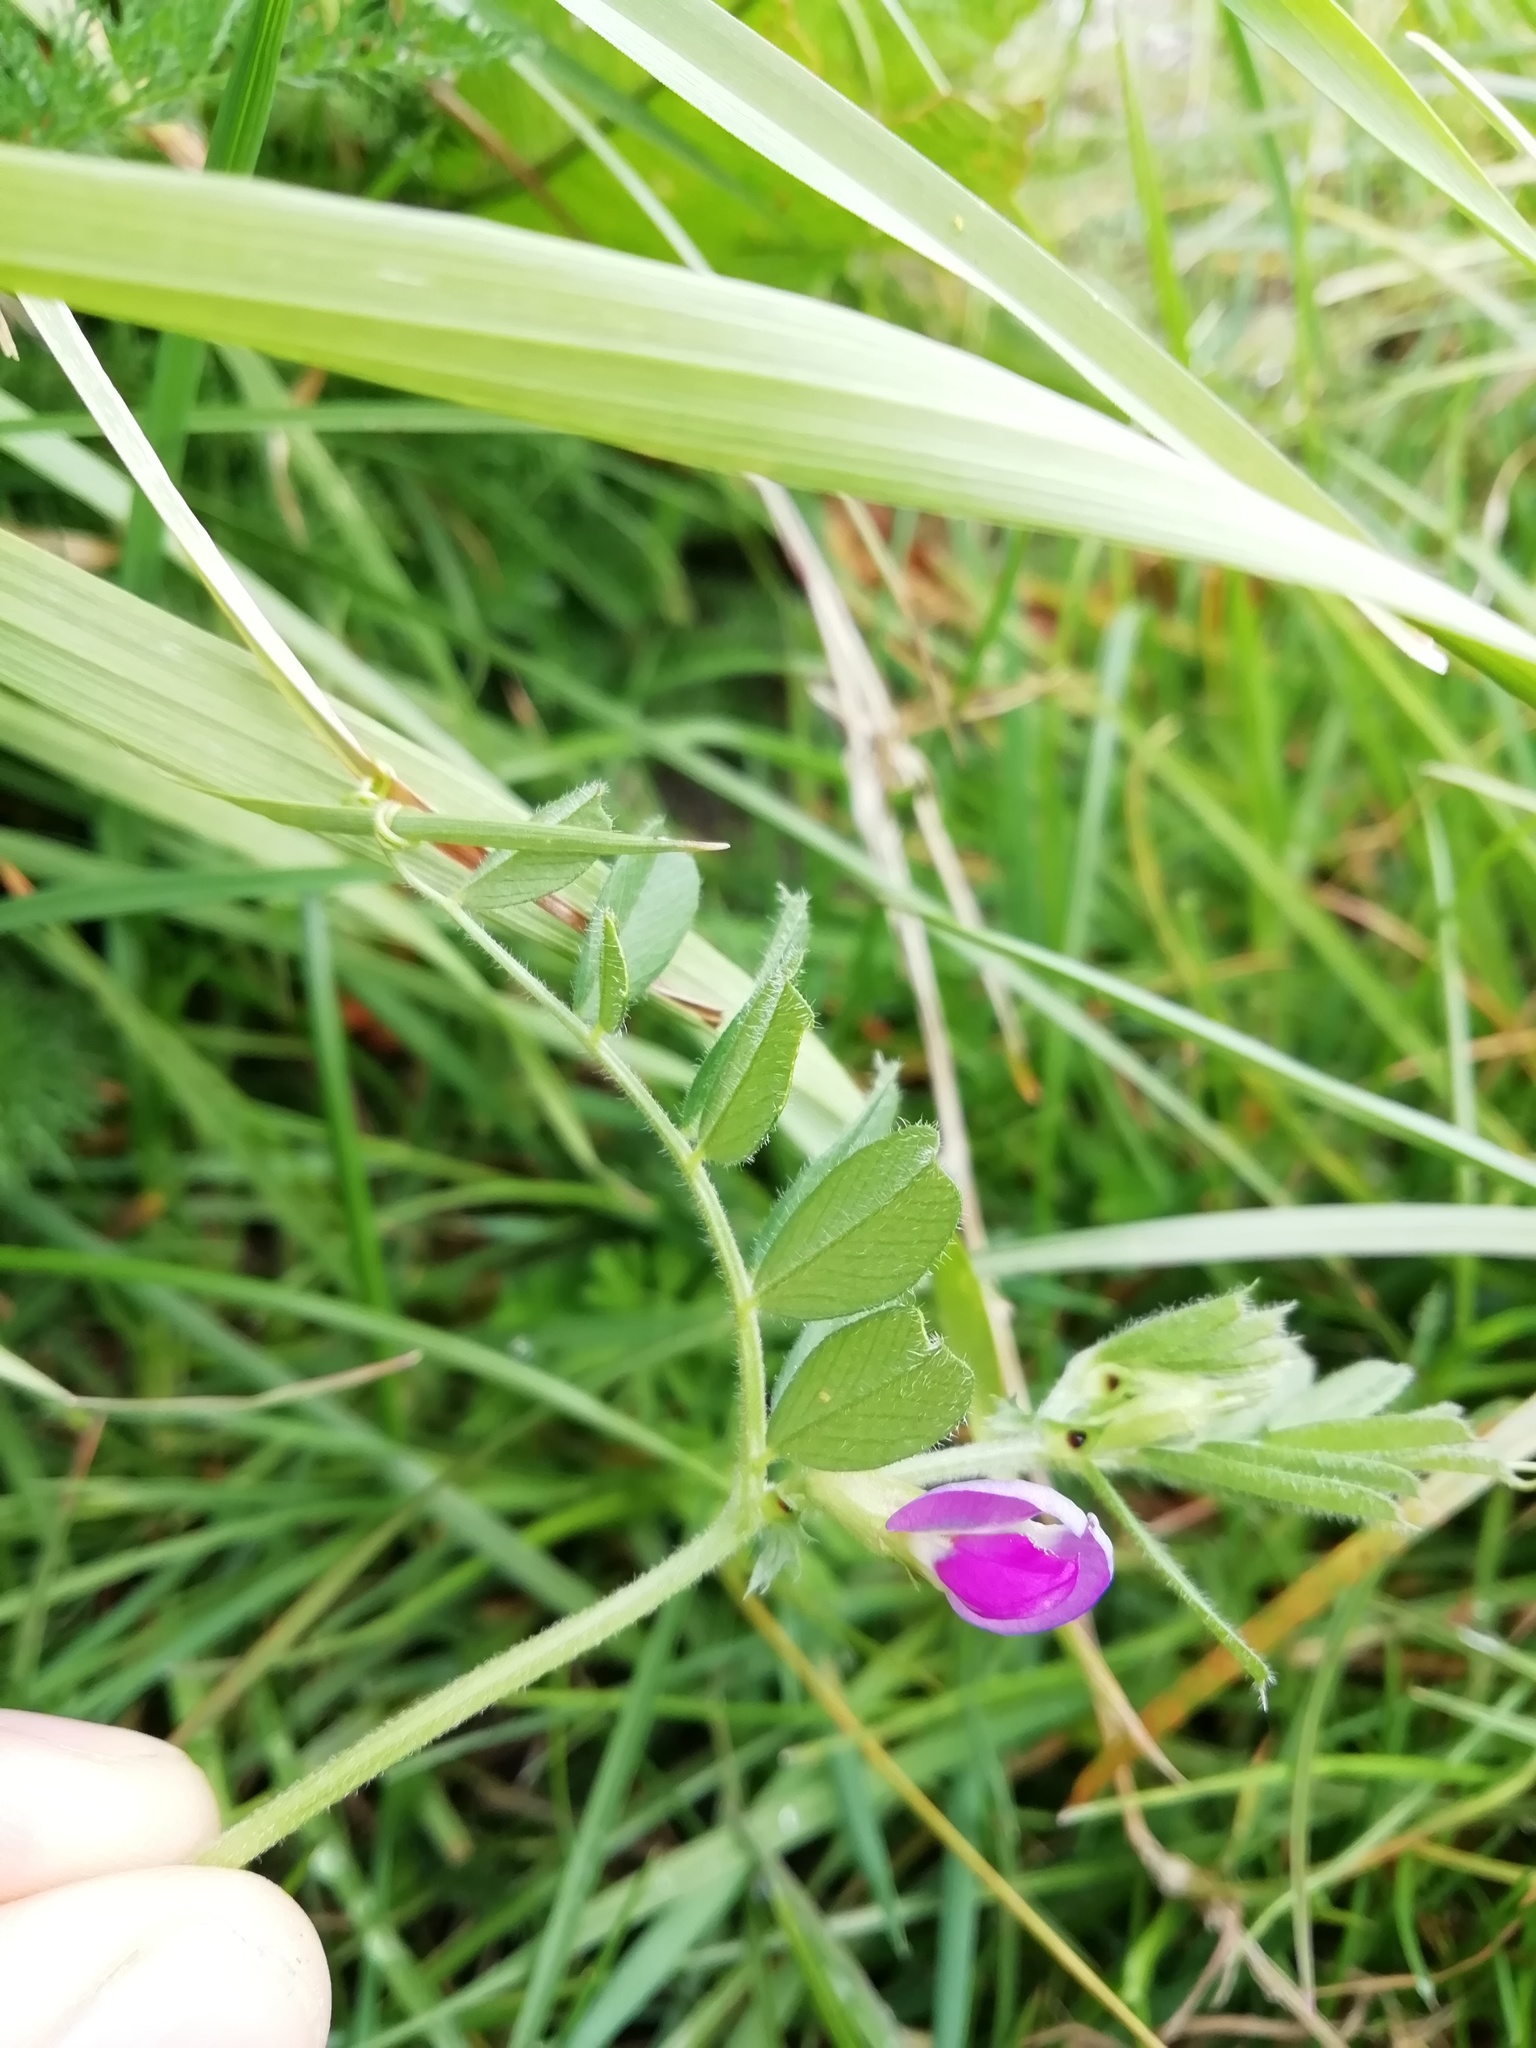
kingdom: Plantae
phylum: Tracheophyta
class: Magnoliopsida
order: Fabales
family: Fabaceae
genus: Vicia
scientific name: Vicia sativa
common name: Garden vetch
